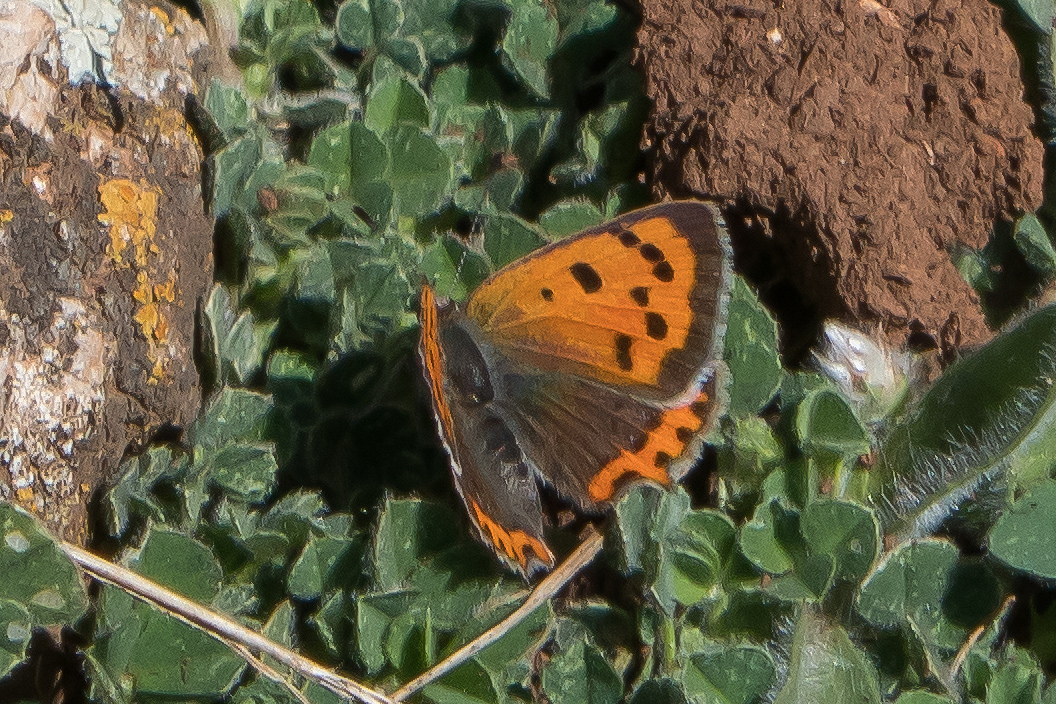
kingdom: Animalia
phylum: Arthropoda
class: Insecta
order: Lepidoptera
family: Lycaenidae
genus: Lycaena
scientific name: Lycaena phlaeas
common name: Small copper
